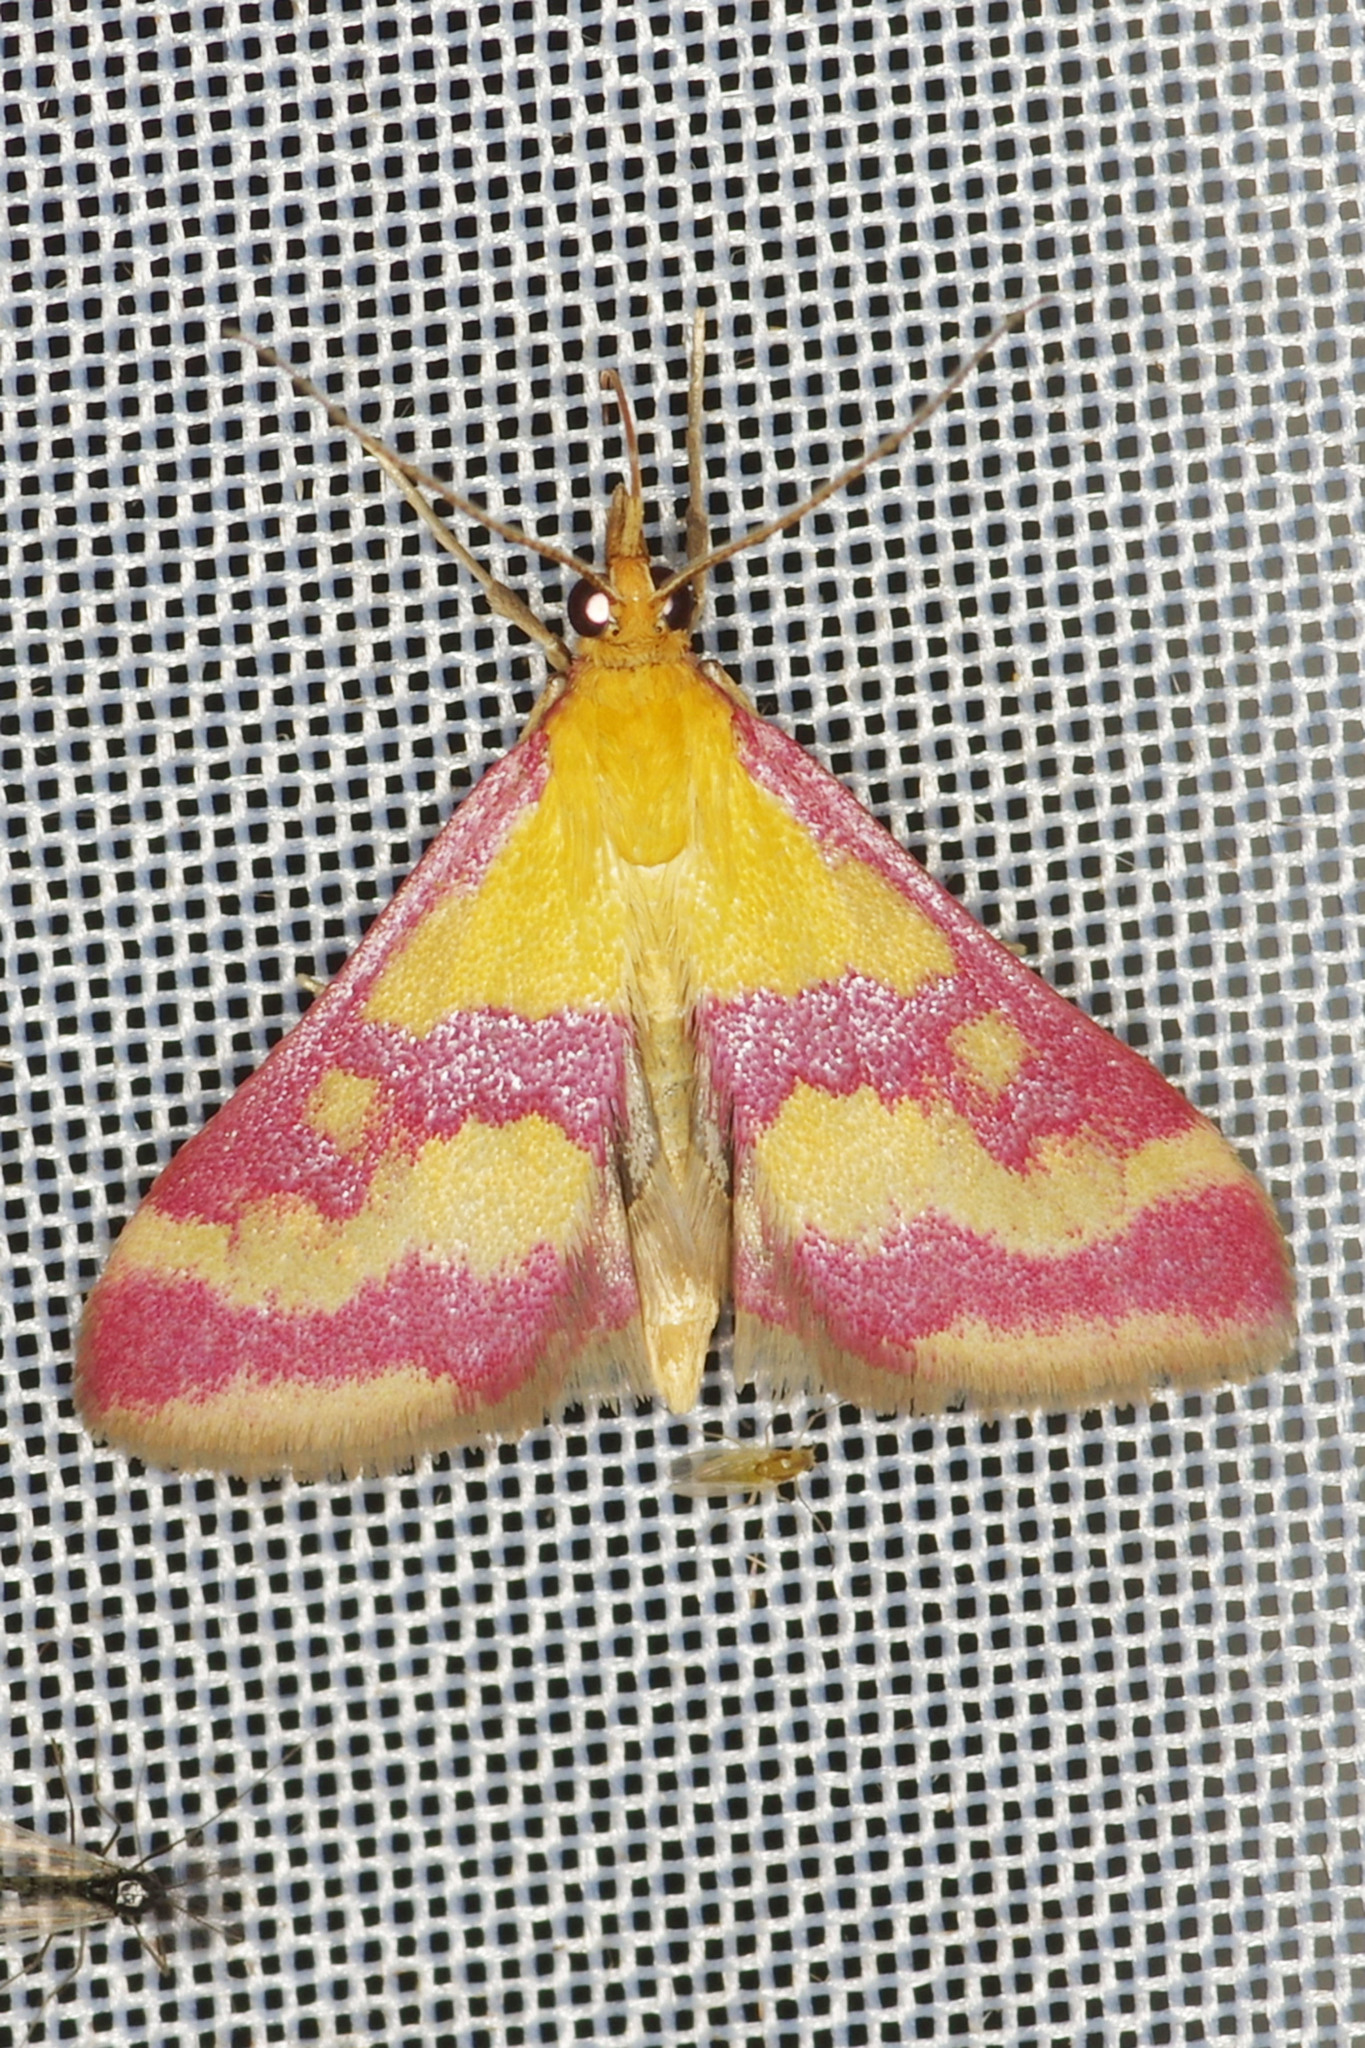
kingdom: Animalia
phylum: Arthropoda
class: Insecta
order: Lepidoptera
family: Crambidae
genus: Pyrausta
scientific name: Pyrausta sanguinalis
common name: Scarce crimson and gold
